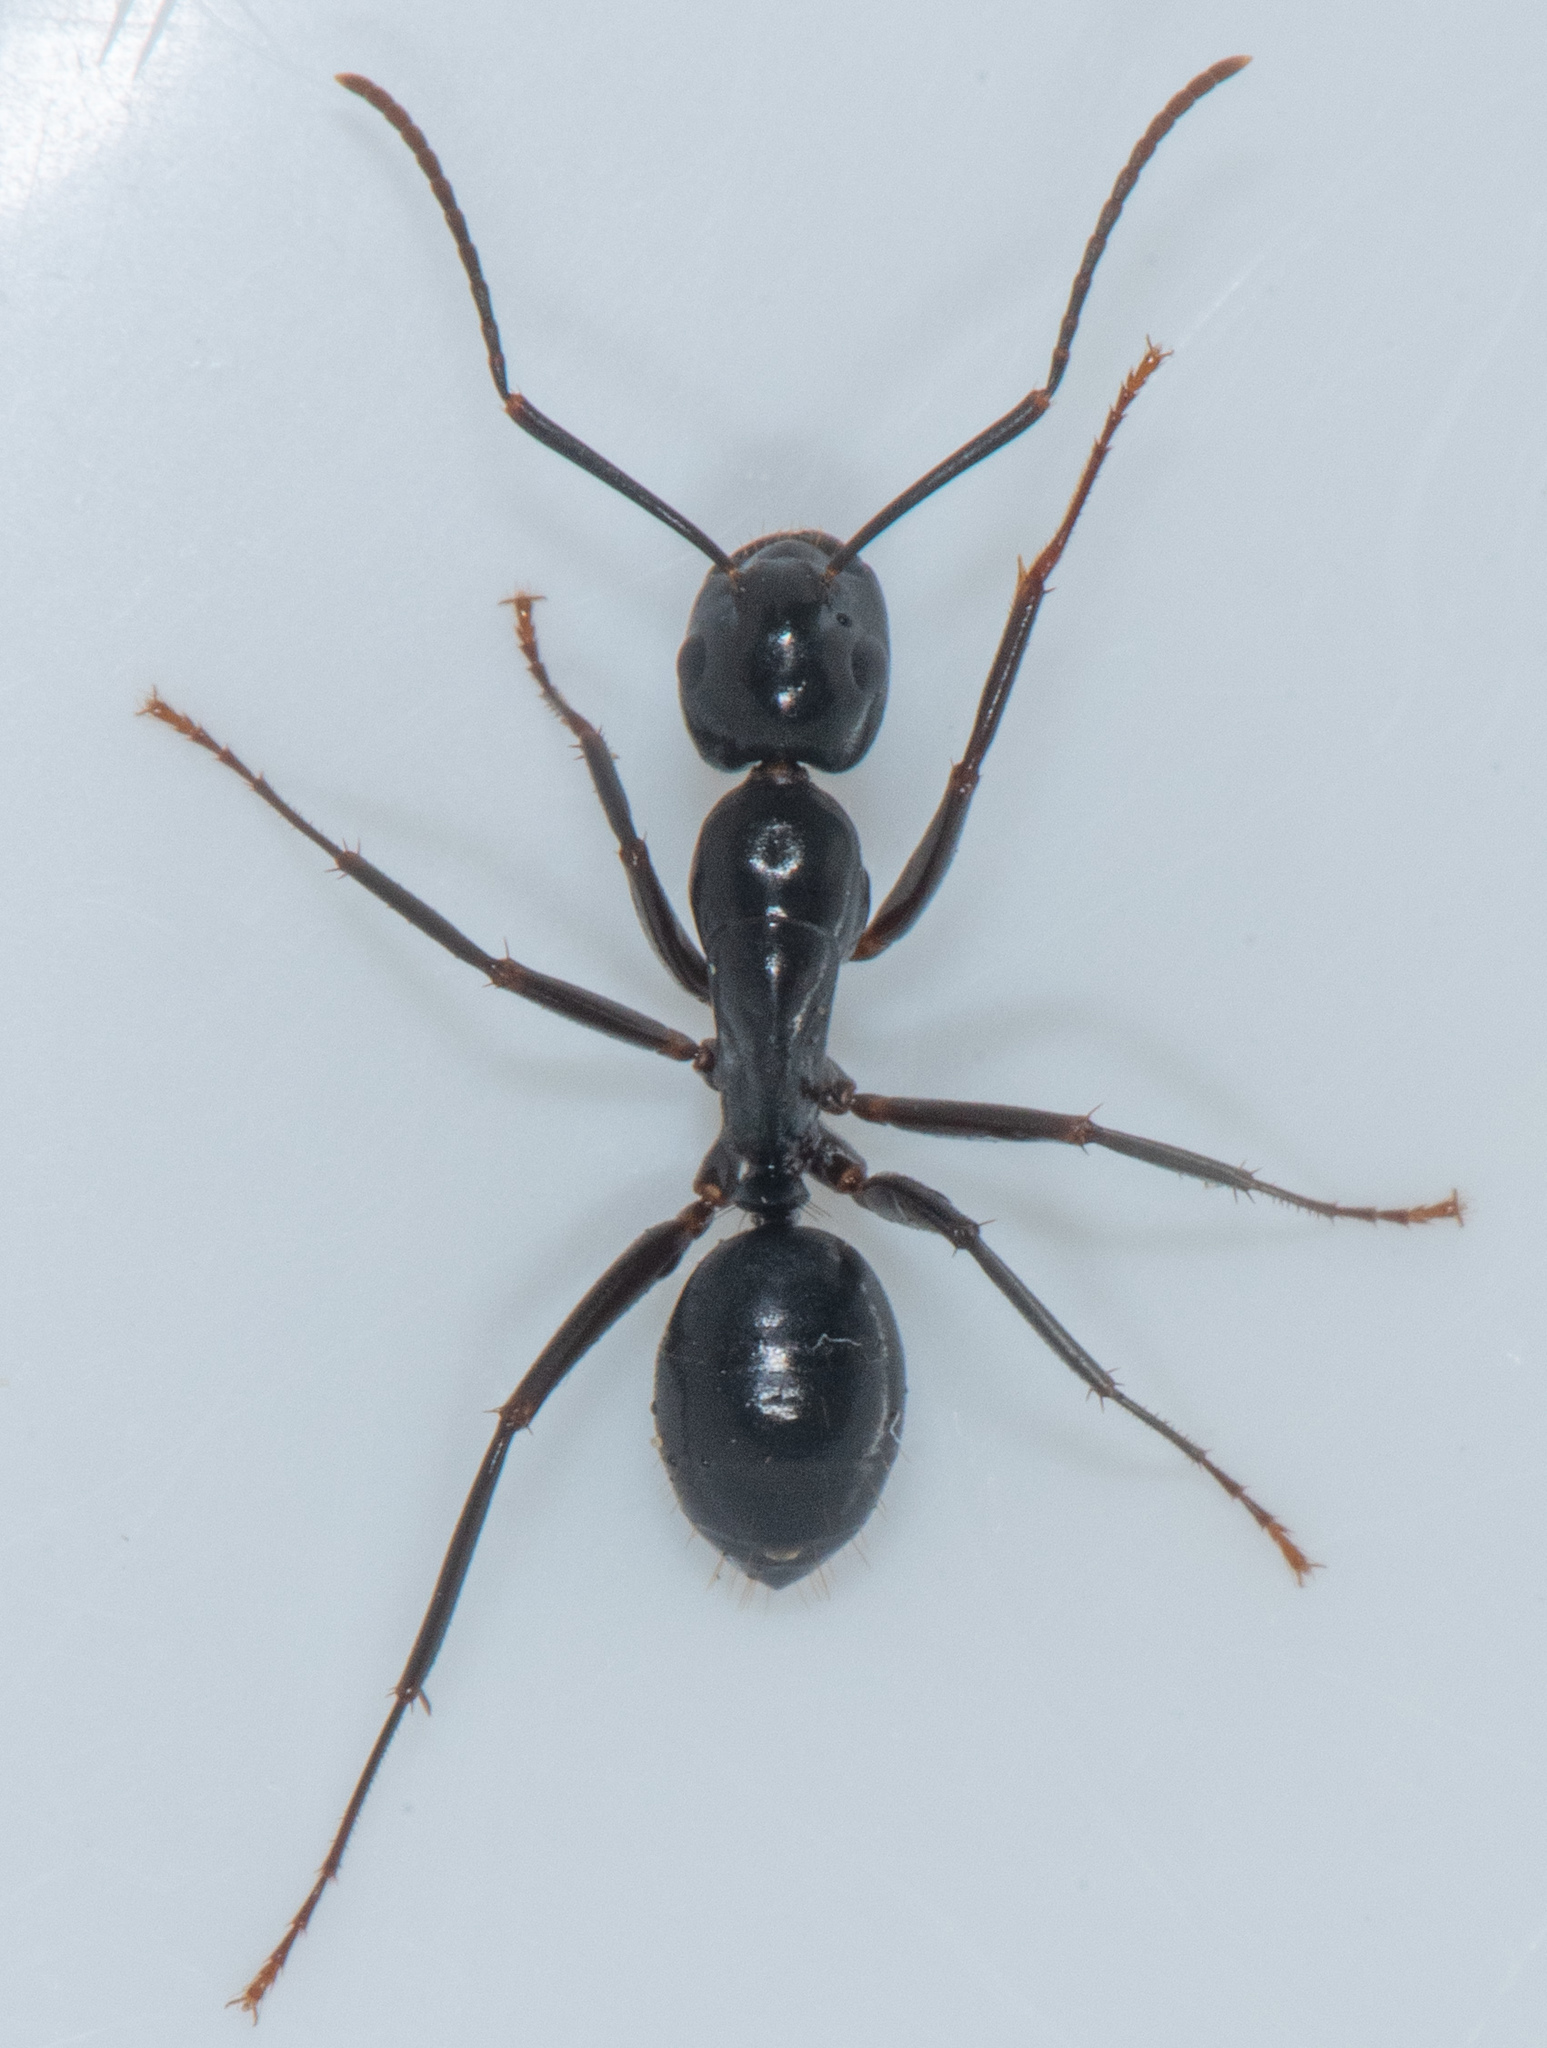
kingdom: Animalia
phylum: Arthropoda
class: Insecta
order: Hymenoptera
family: Formicidae
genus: Camponotus
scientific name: Camponotus laevigatus
